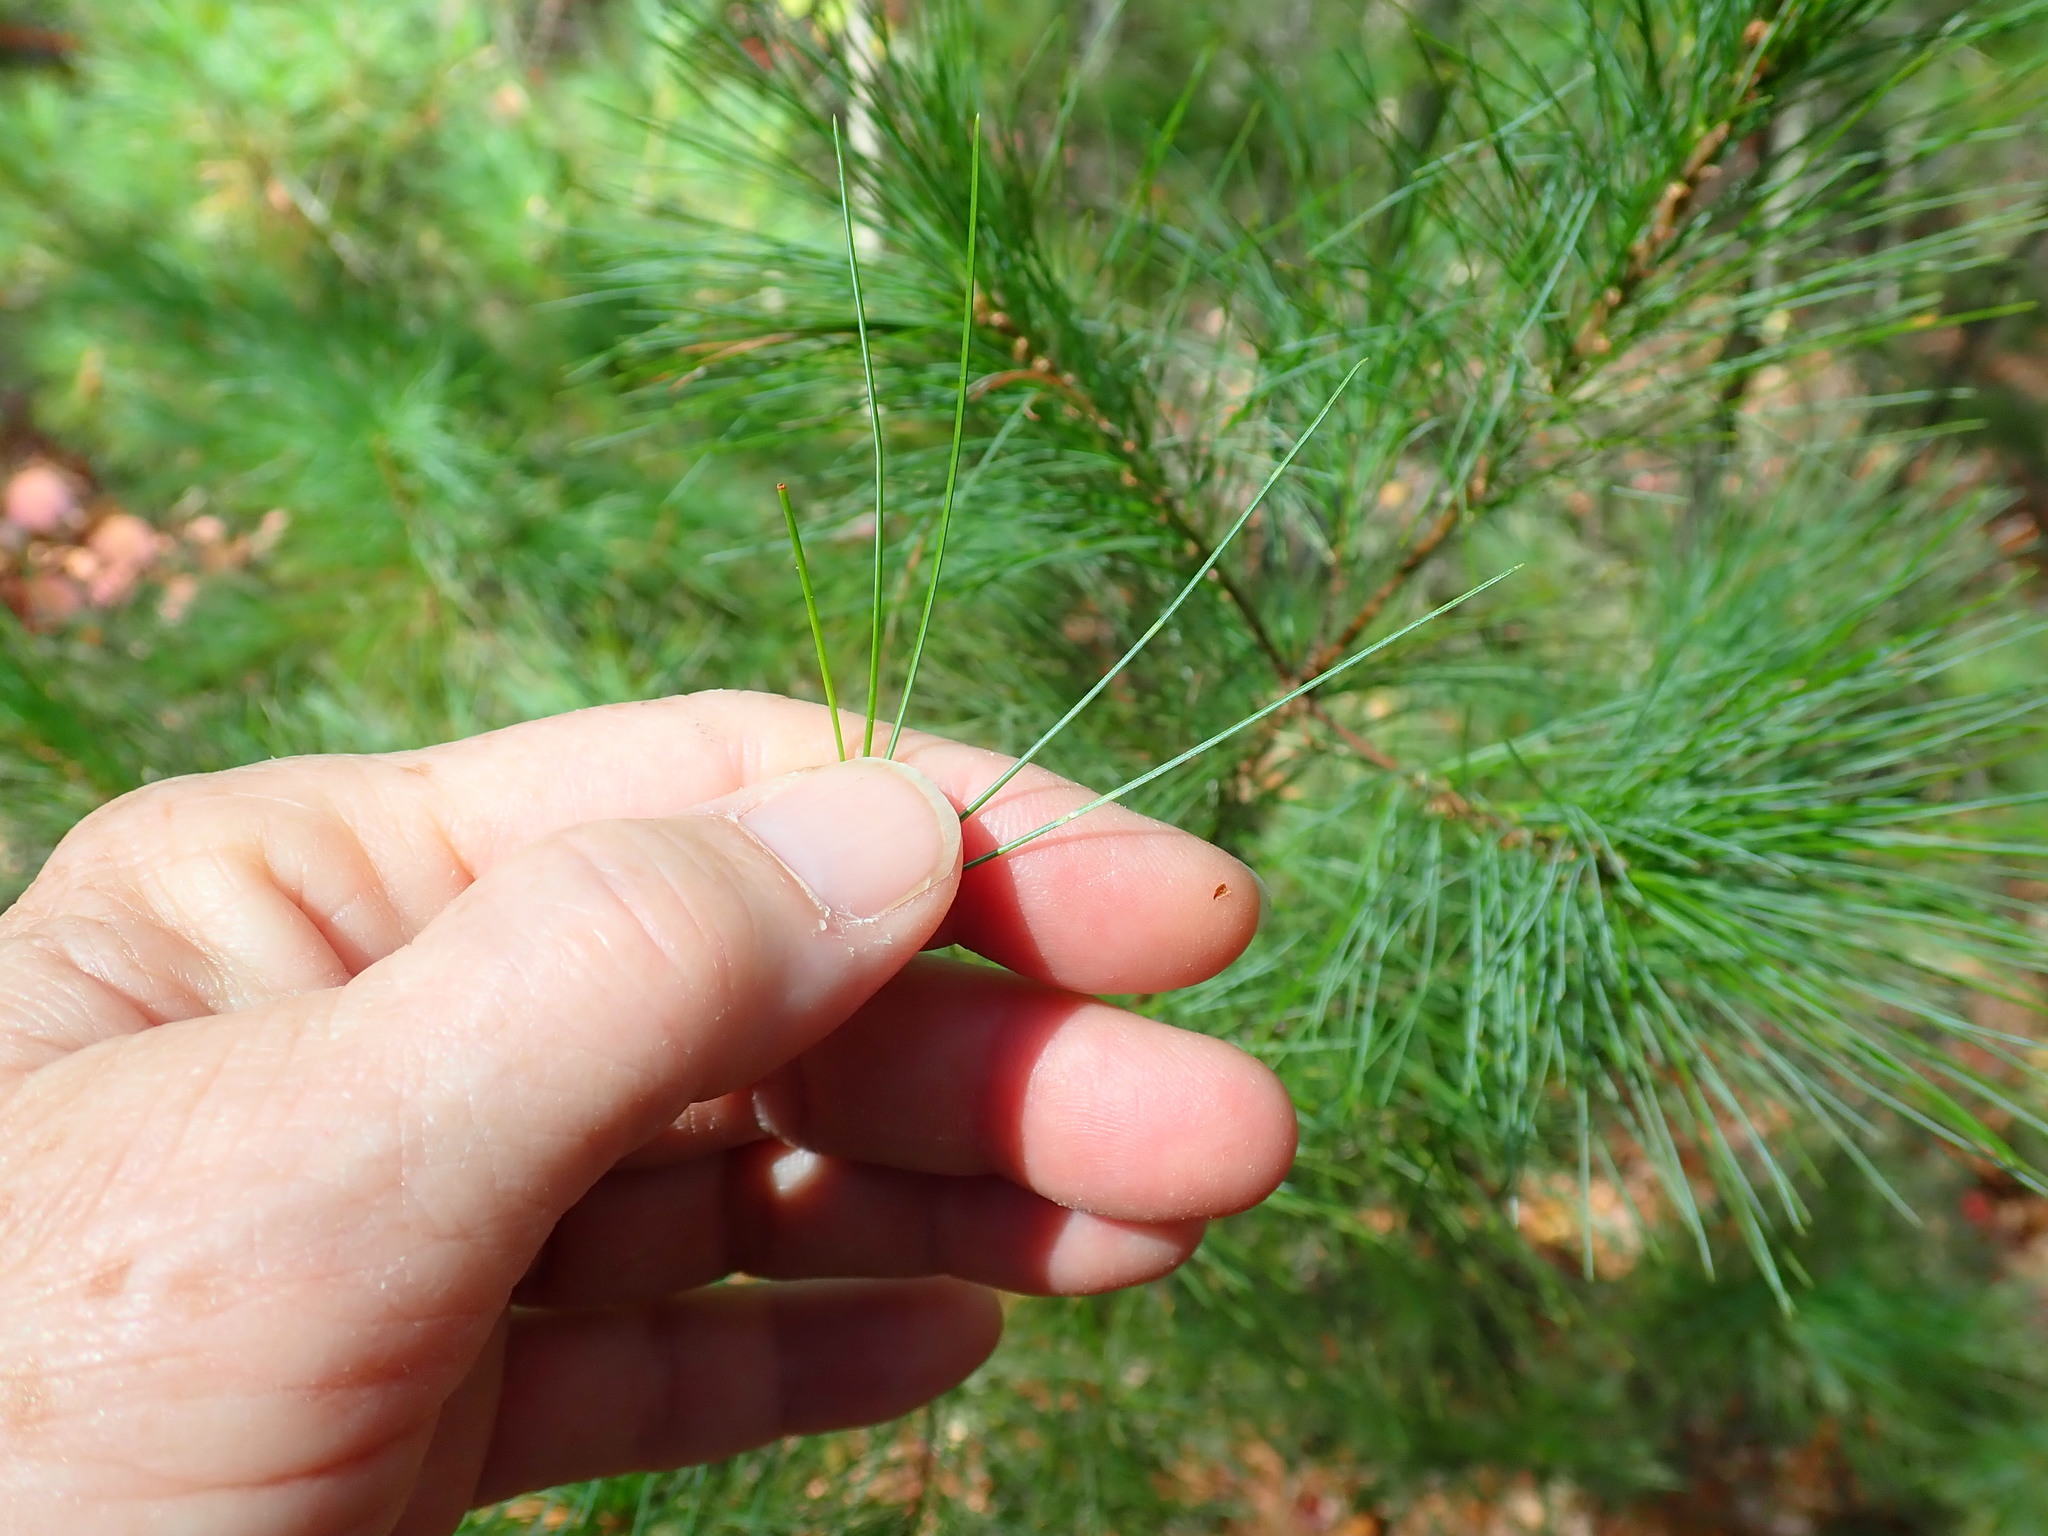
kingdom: Plantae
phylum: Tracheophyta
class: Pinopsida
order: Pinales
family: Pinaceae
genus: Pinus
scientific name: Pinus strobus
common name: Weymouth pine
